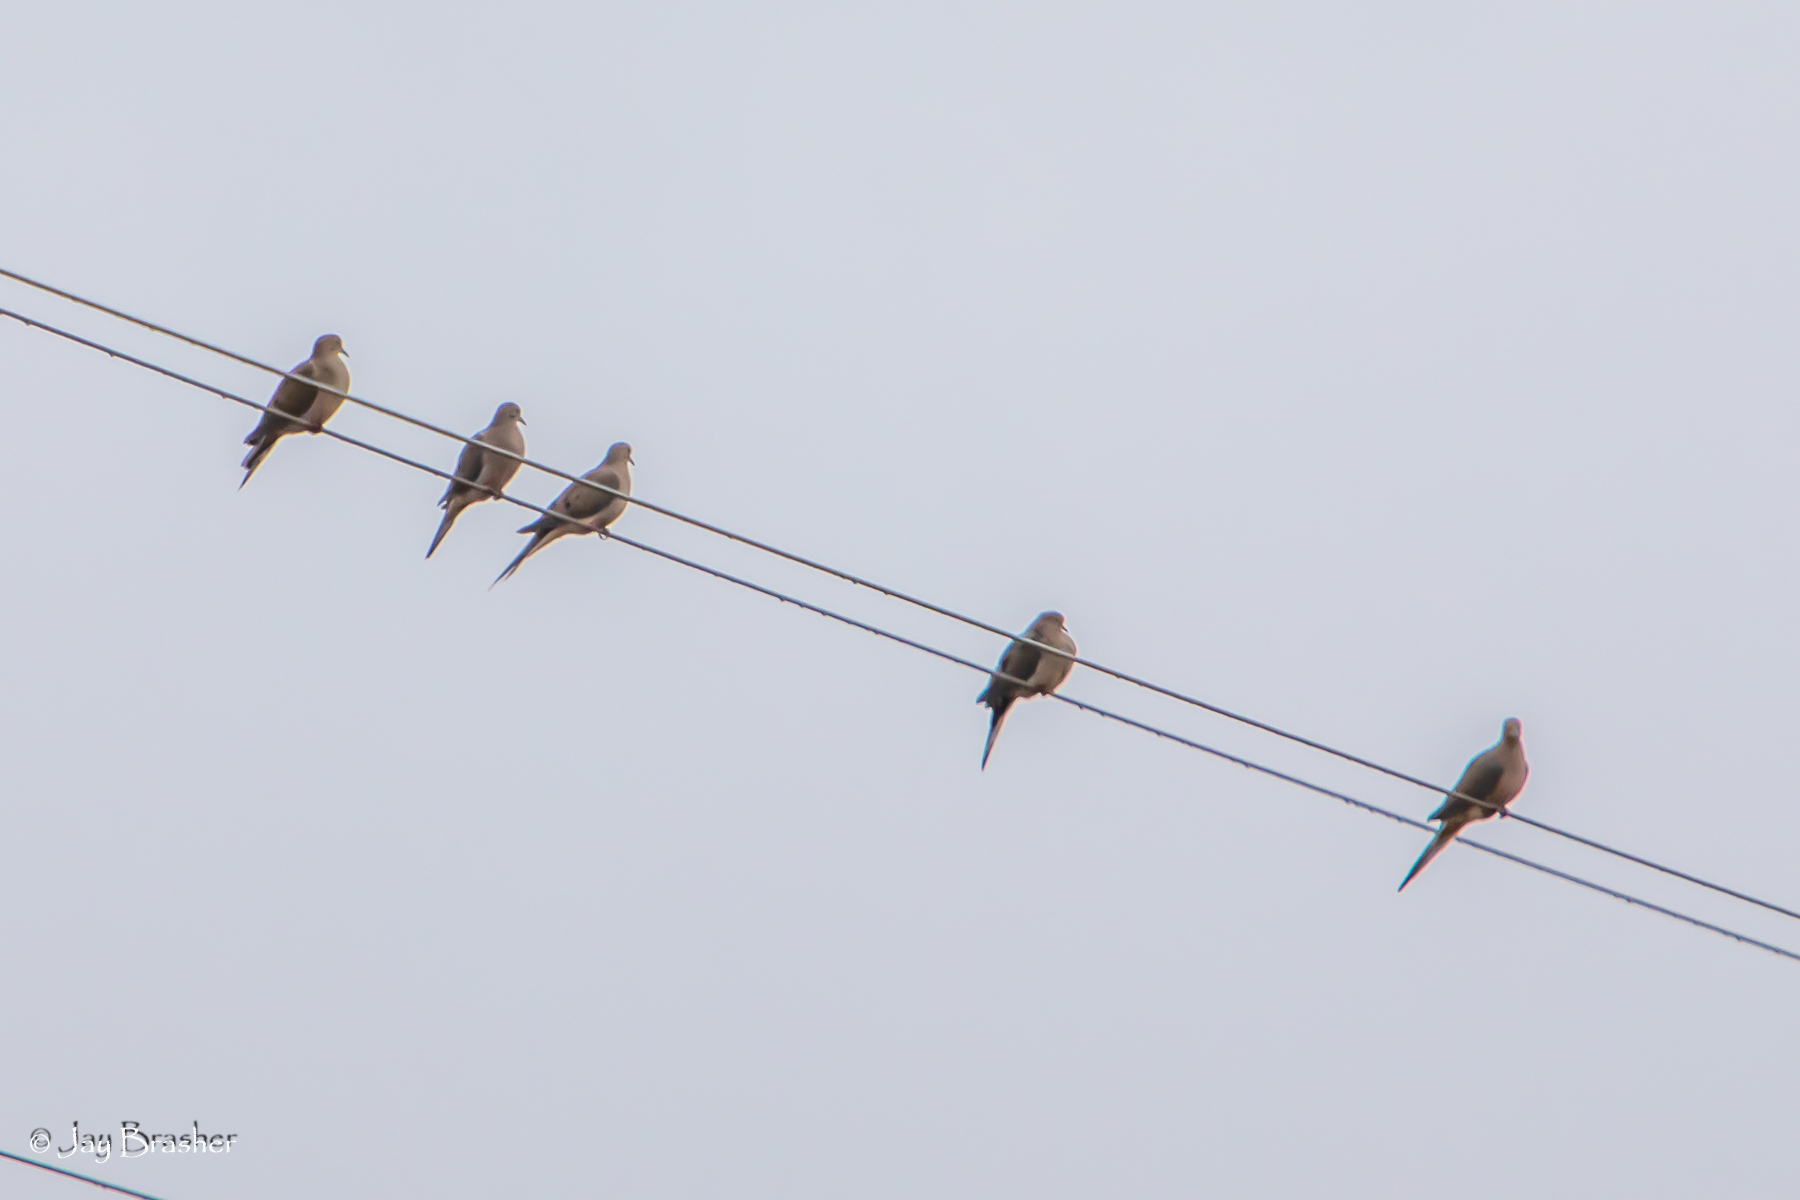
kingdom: Animalia
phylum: Chordata
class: Aves
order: Columbiformes
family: Columbidae
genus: Zenaida
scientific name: Zenaida macroura
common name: Mourning dove
